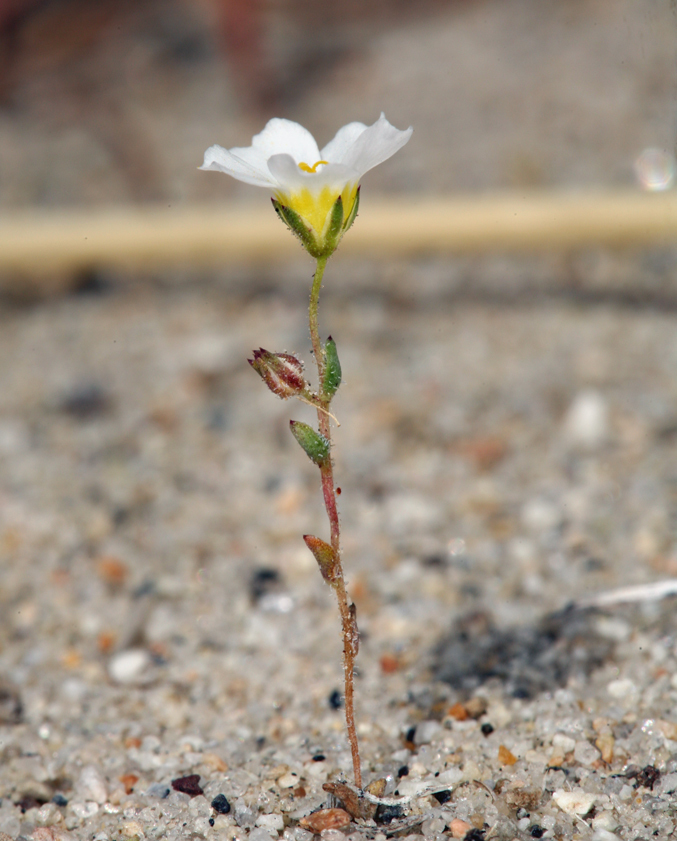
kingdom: Plantae
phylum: Tracheophyta
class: Magnoliopsida
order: Ericales
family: Polemoniaceae
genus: Linanthus
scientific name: Linanthus inyoensis
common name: Inyo gilia
